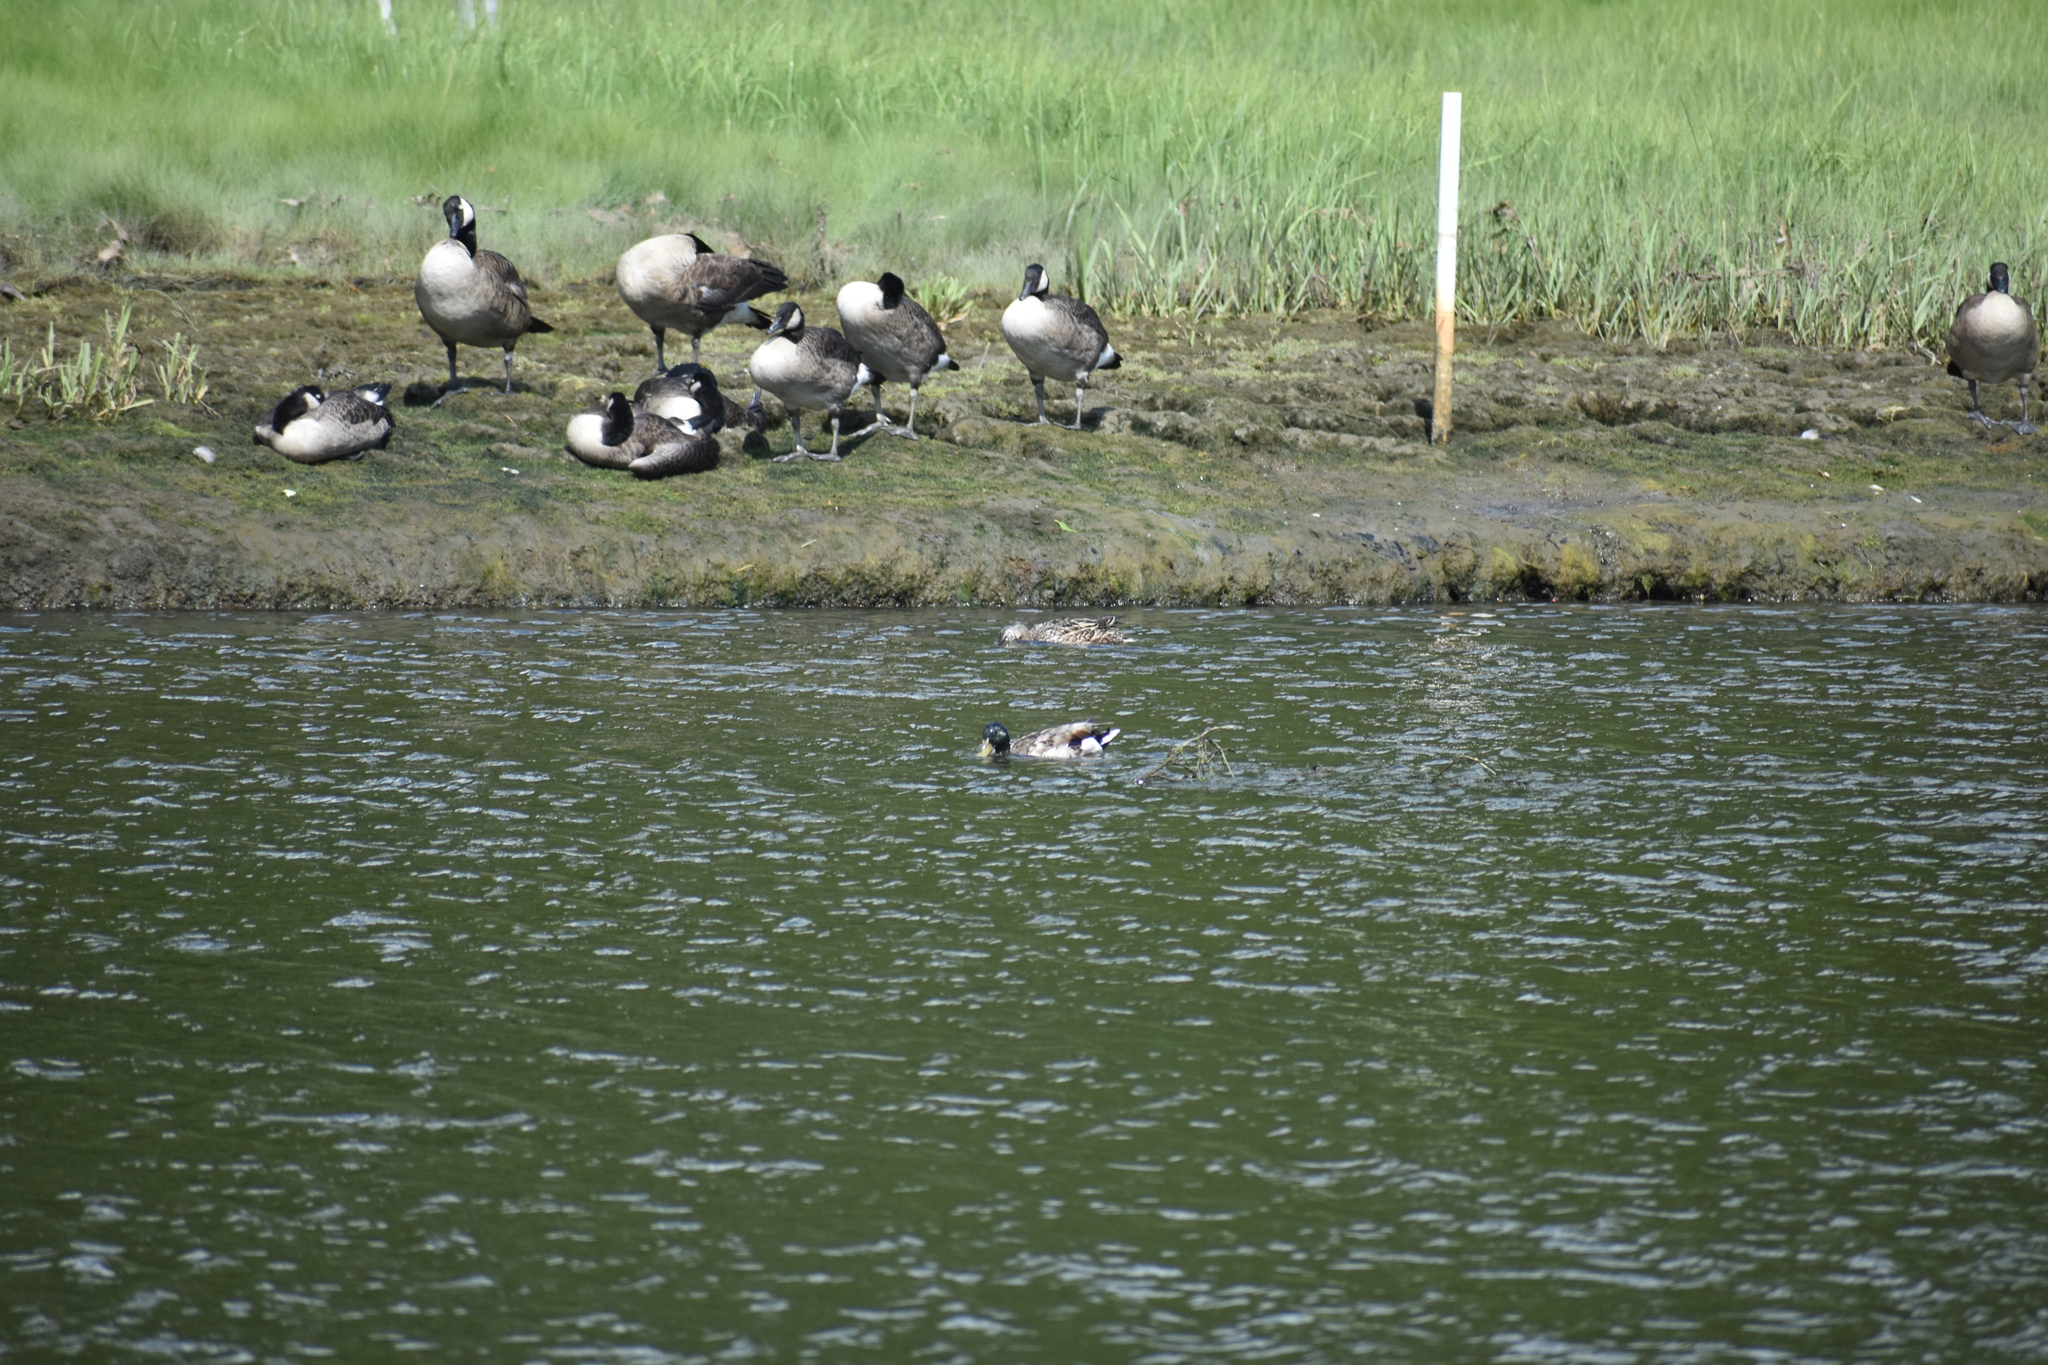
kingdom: Animalia
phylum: Chordata
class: Aves
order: Anseriformes
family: Anatidae
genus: Anas
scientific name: Anas platyrhynchos
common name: Mallard
